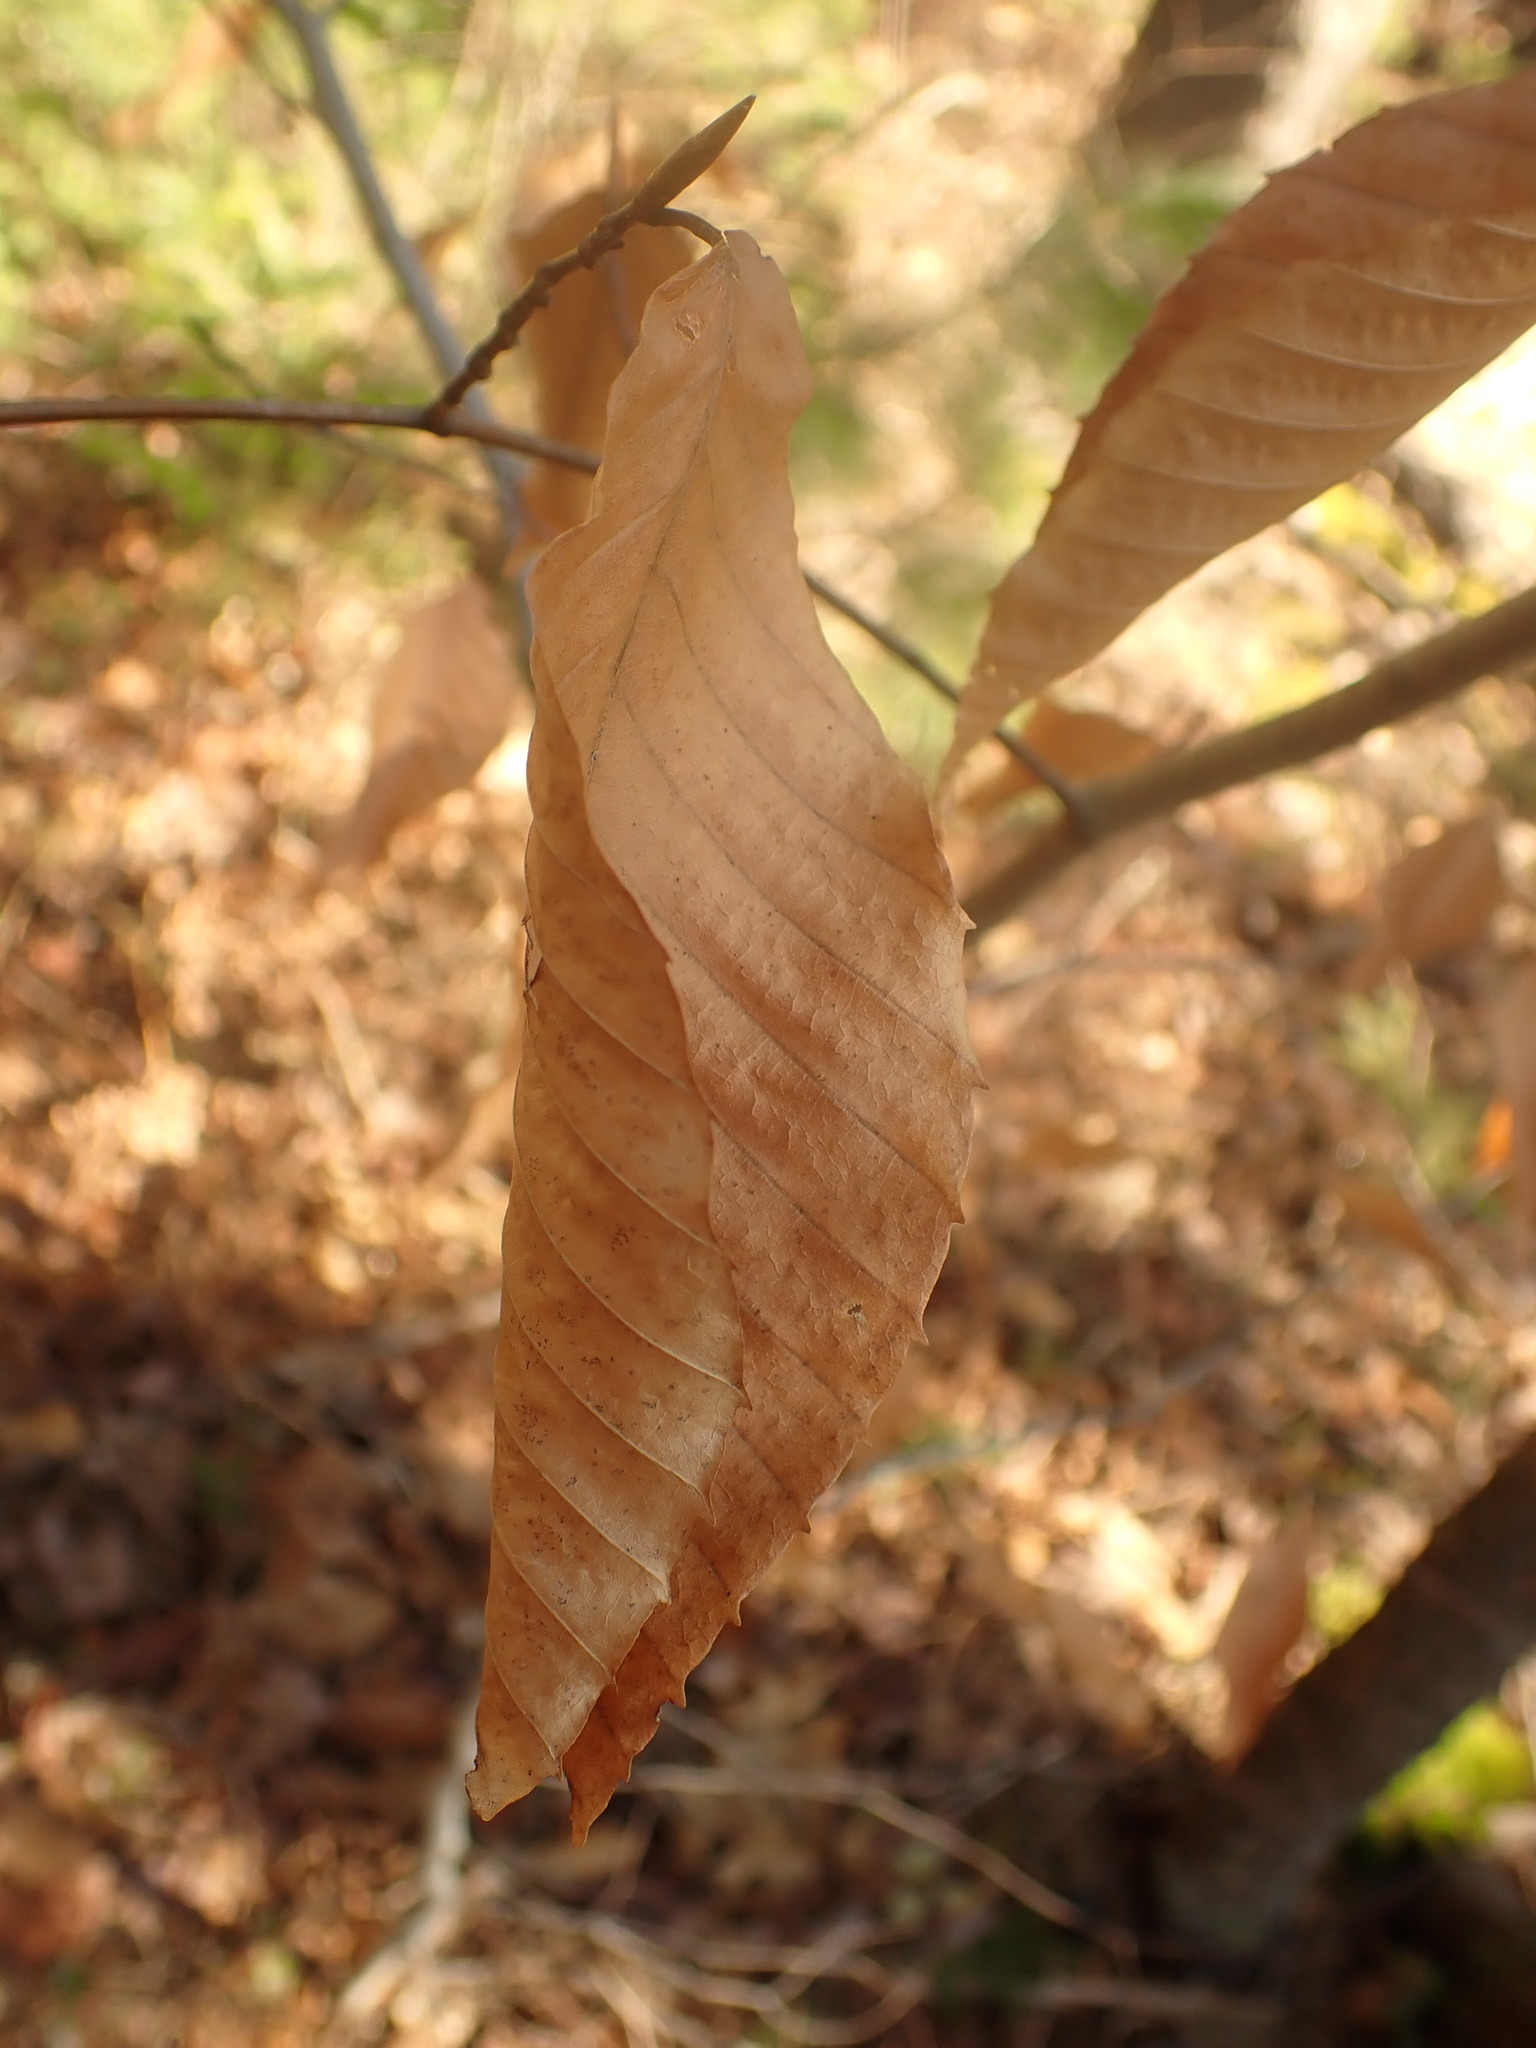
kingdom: Plantae
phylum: Tracheophyta
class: Magnoliopsida
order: Fagales
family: Fagaceae
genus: Fagus
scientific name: Fagus grandifolia
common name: American beech
